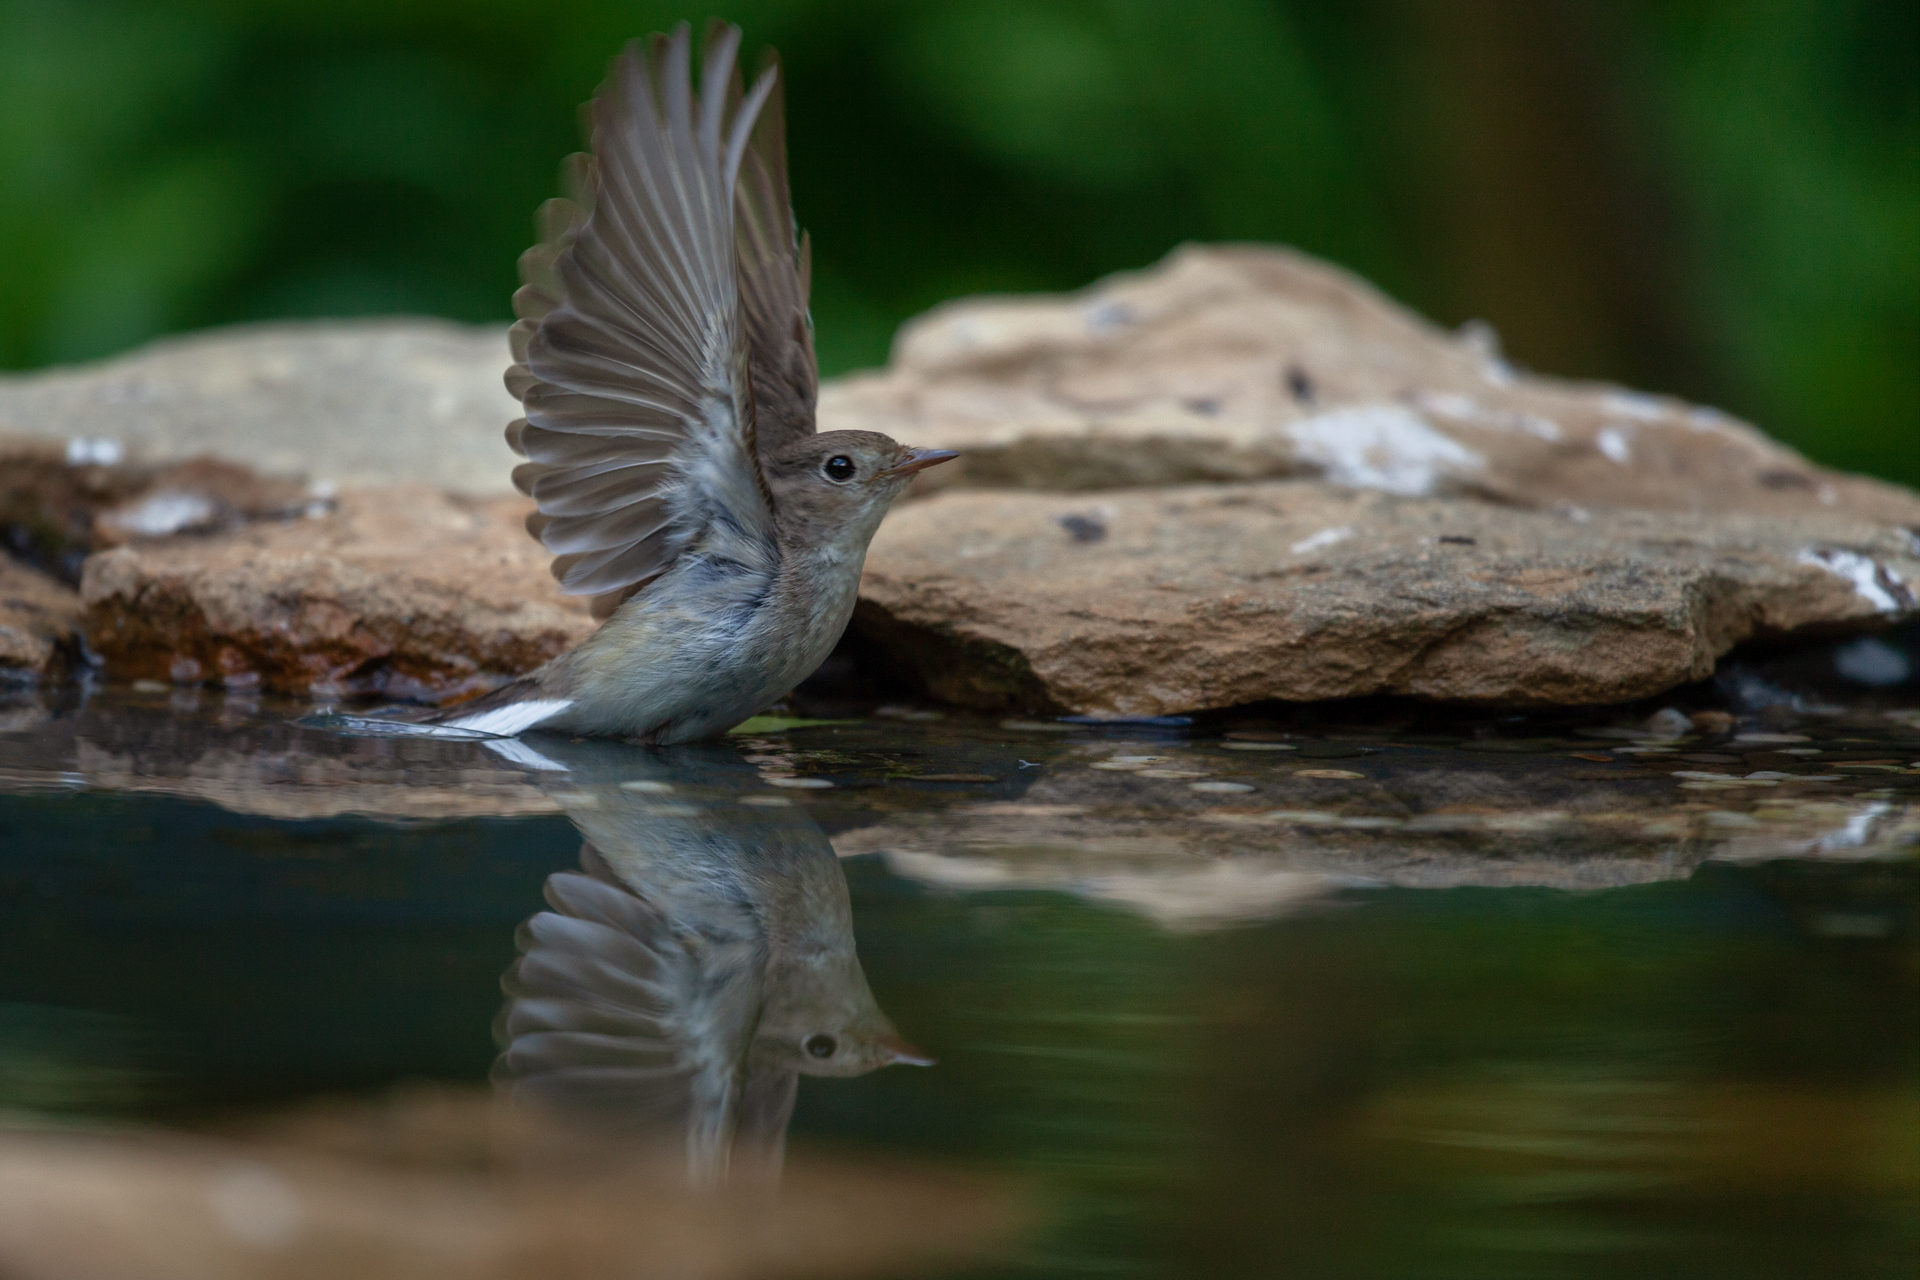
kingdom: Animalia
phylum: Chordata
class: Aves
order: Passeriformes
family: Muscicapidae
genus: Ficedula
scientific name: Ficedula parva
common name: Red-breasted flycatcher
